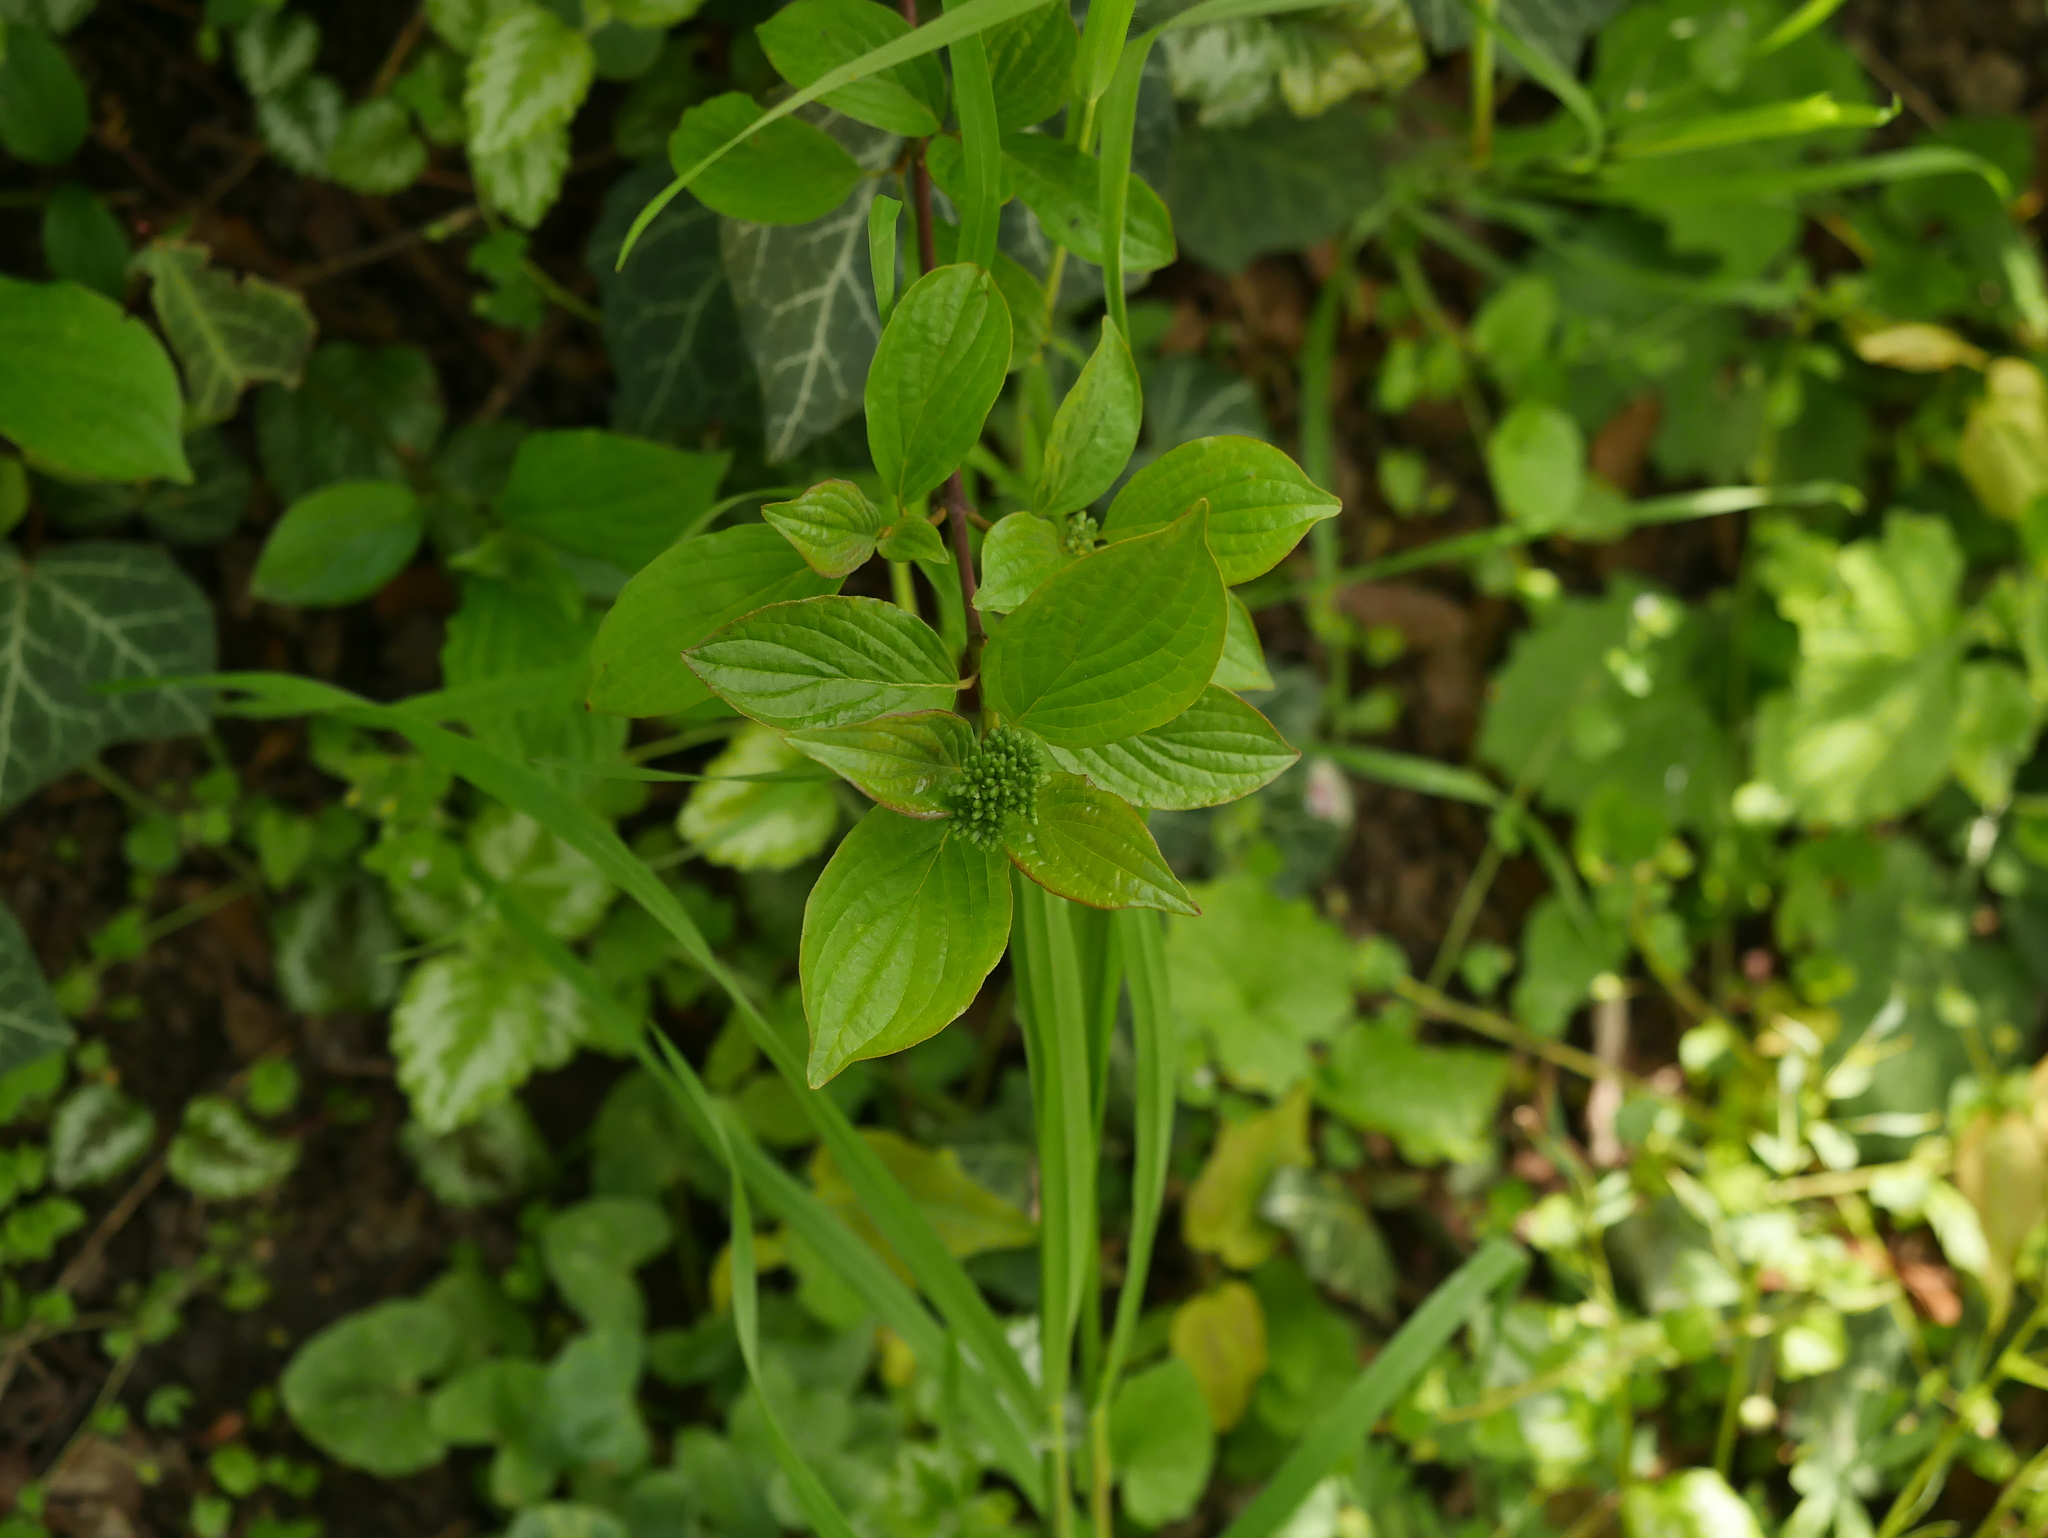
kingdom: Plantae
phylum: Tracheophyta
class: Magnoliopsida
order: Cornales
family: Cornaceae
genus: Cornus
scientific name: Cornus sanguinea
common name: Dogwood
